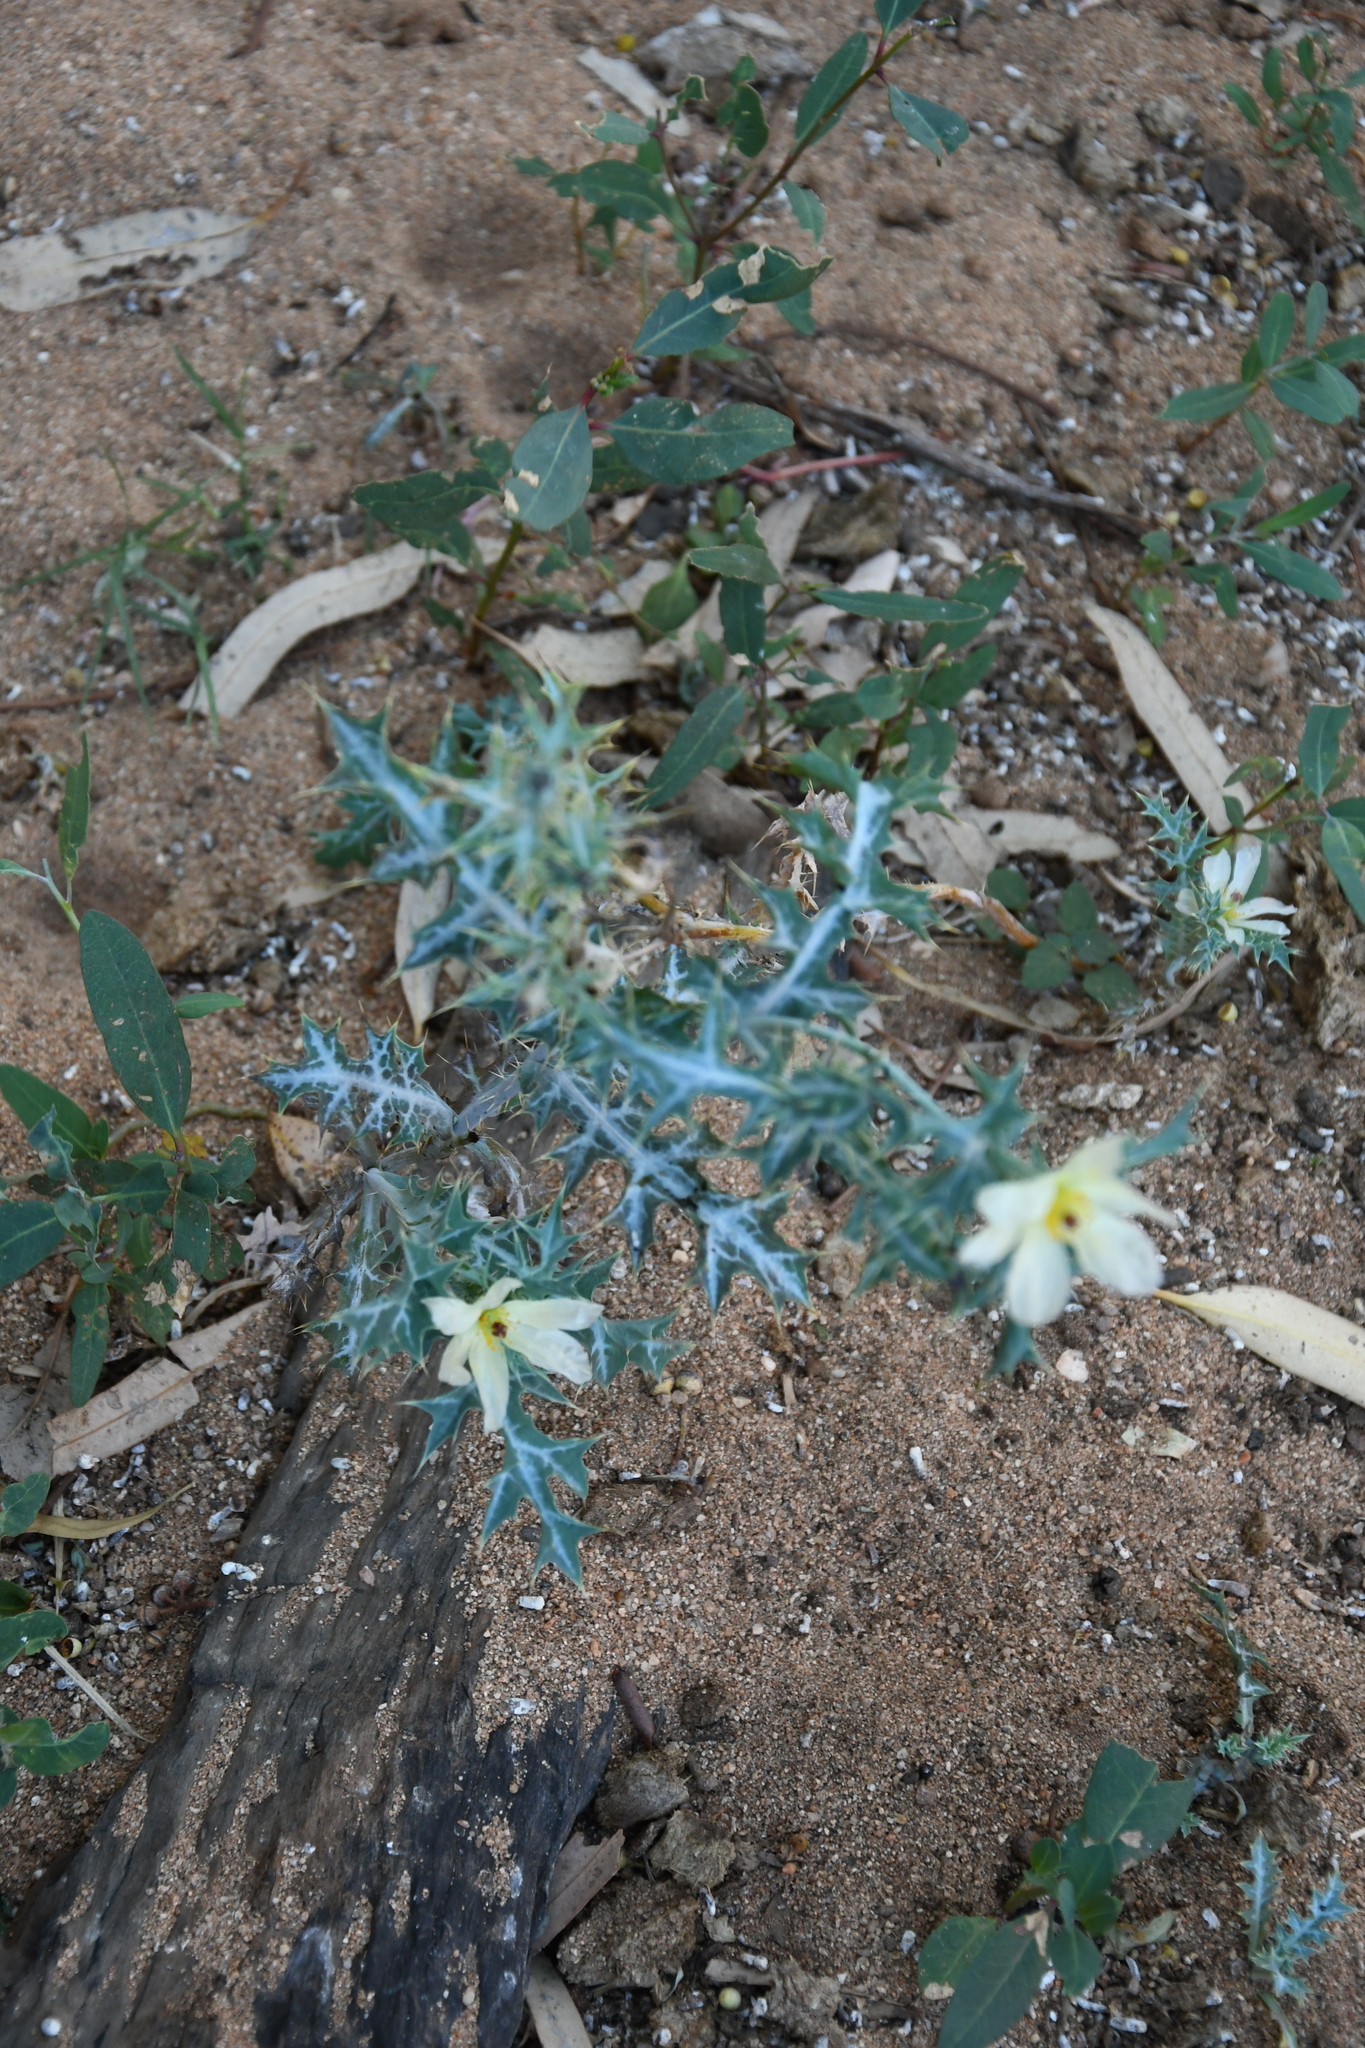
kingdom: Plantae
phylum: Tracheophyta
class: Magnoliopsida
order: Ranunculales
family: Papaveraceae
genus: Argemone
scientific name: Argemone ochroleuca
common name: White-flower mexican-poppy
